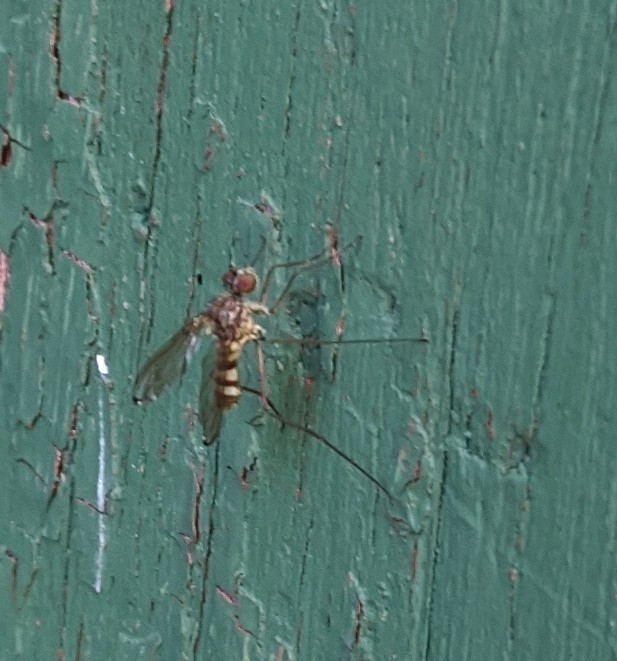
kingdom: Animalia
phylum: Arthropoda
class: Insecta
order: Diptera
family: Dolichopodidae
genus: Liancalus
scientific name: Liancalus genualis
